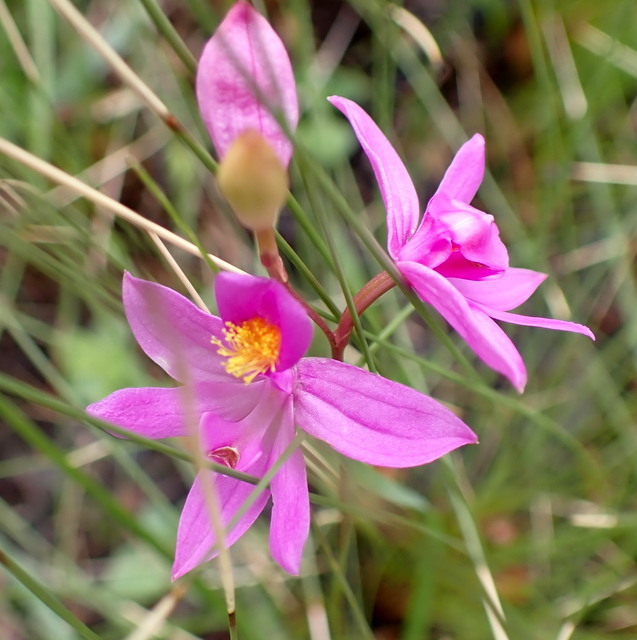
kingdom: Plantae
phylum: Tracheophyta
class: Liliopsida
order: Asparagales
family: Orchidaceae
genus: Calopogon
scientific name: Calopogon barbatus
